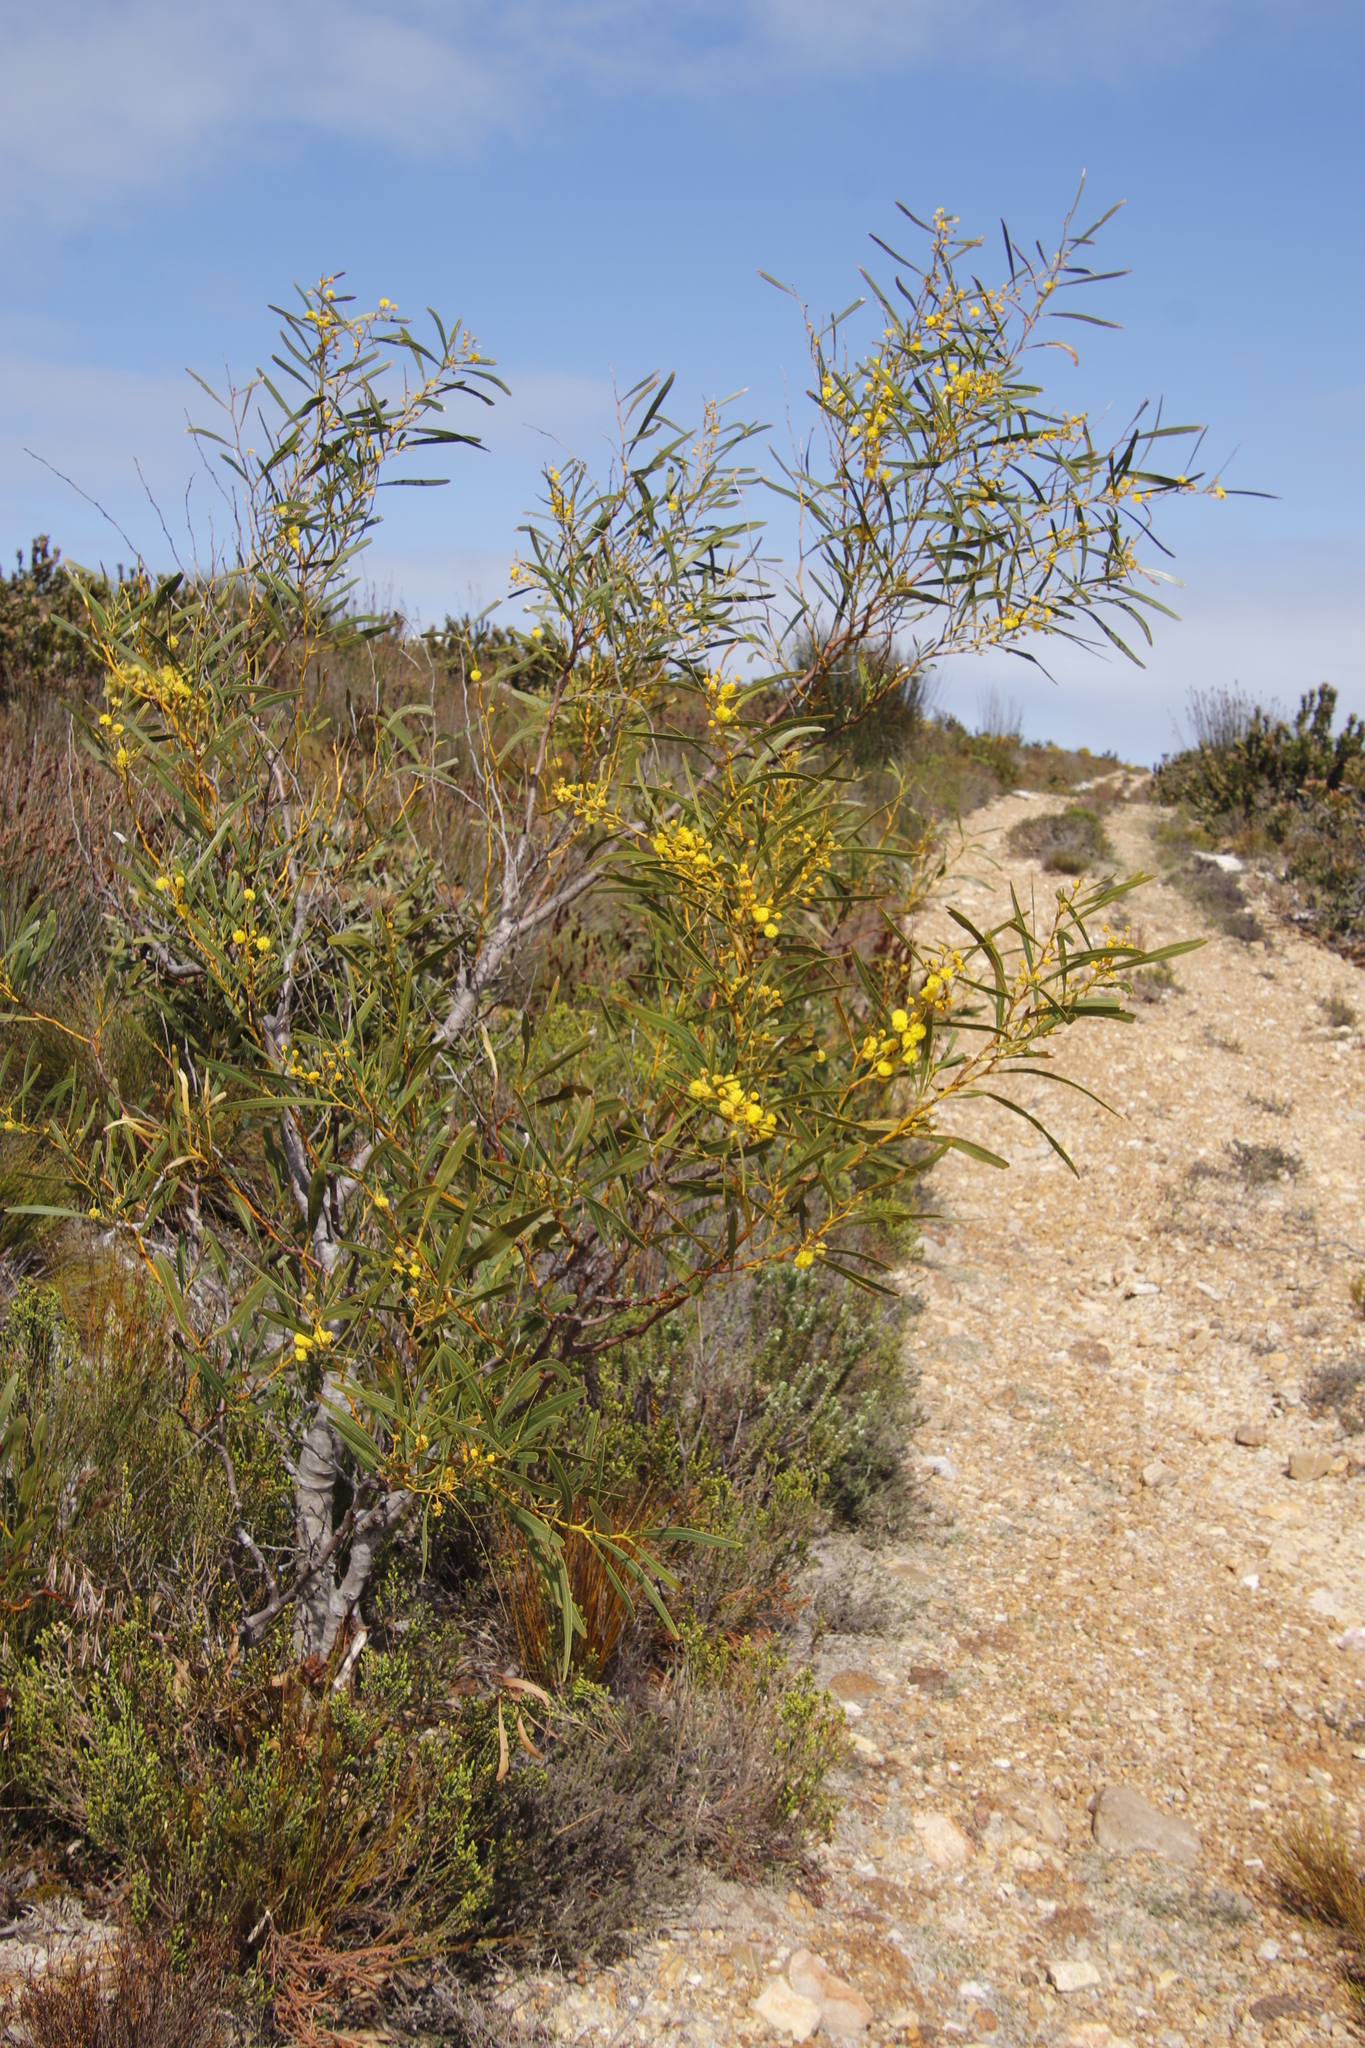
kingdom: Plantae
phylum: Tracheophyta
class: Magnoliopsida
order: Fabales
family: Fabaceae
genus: Acacia
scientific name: Acacia saligna
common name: Orange wattle
